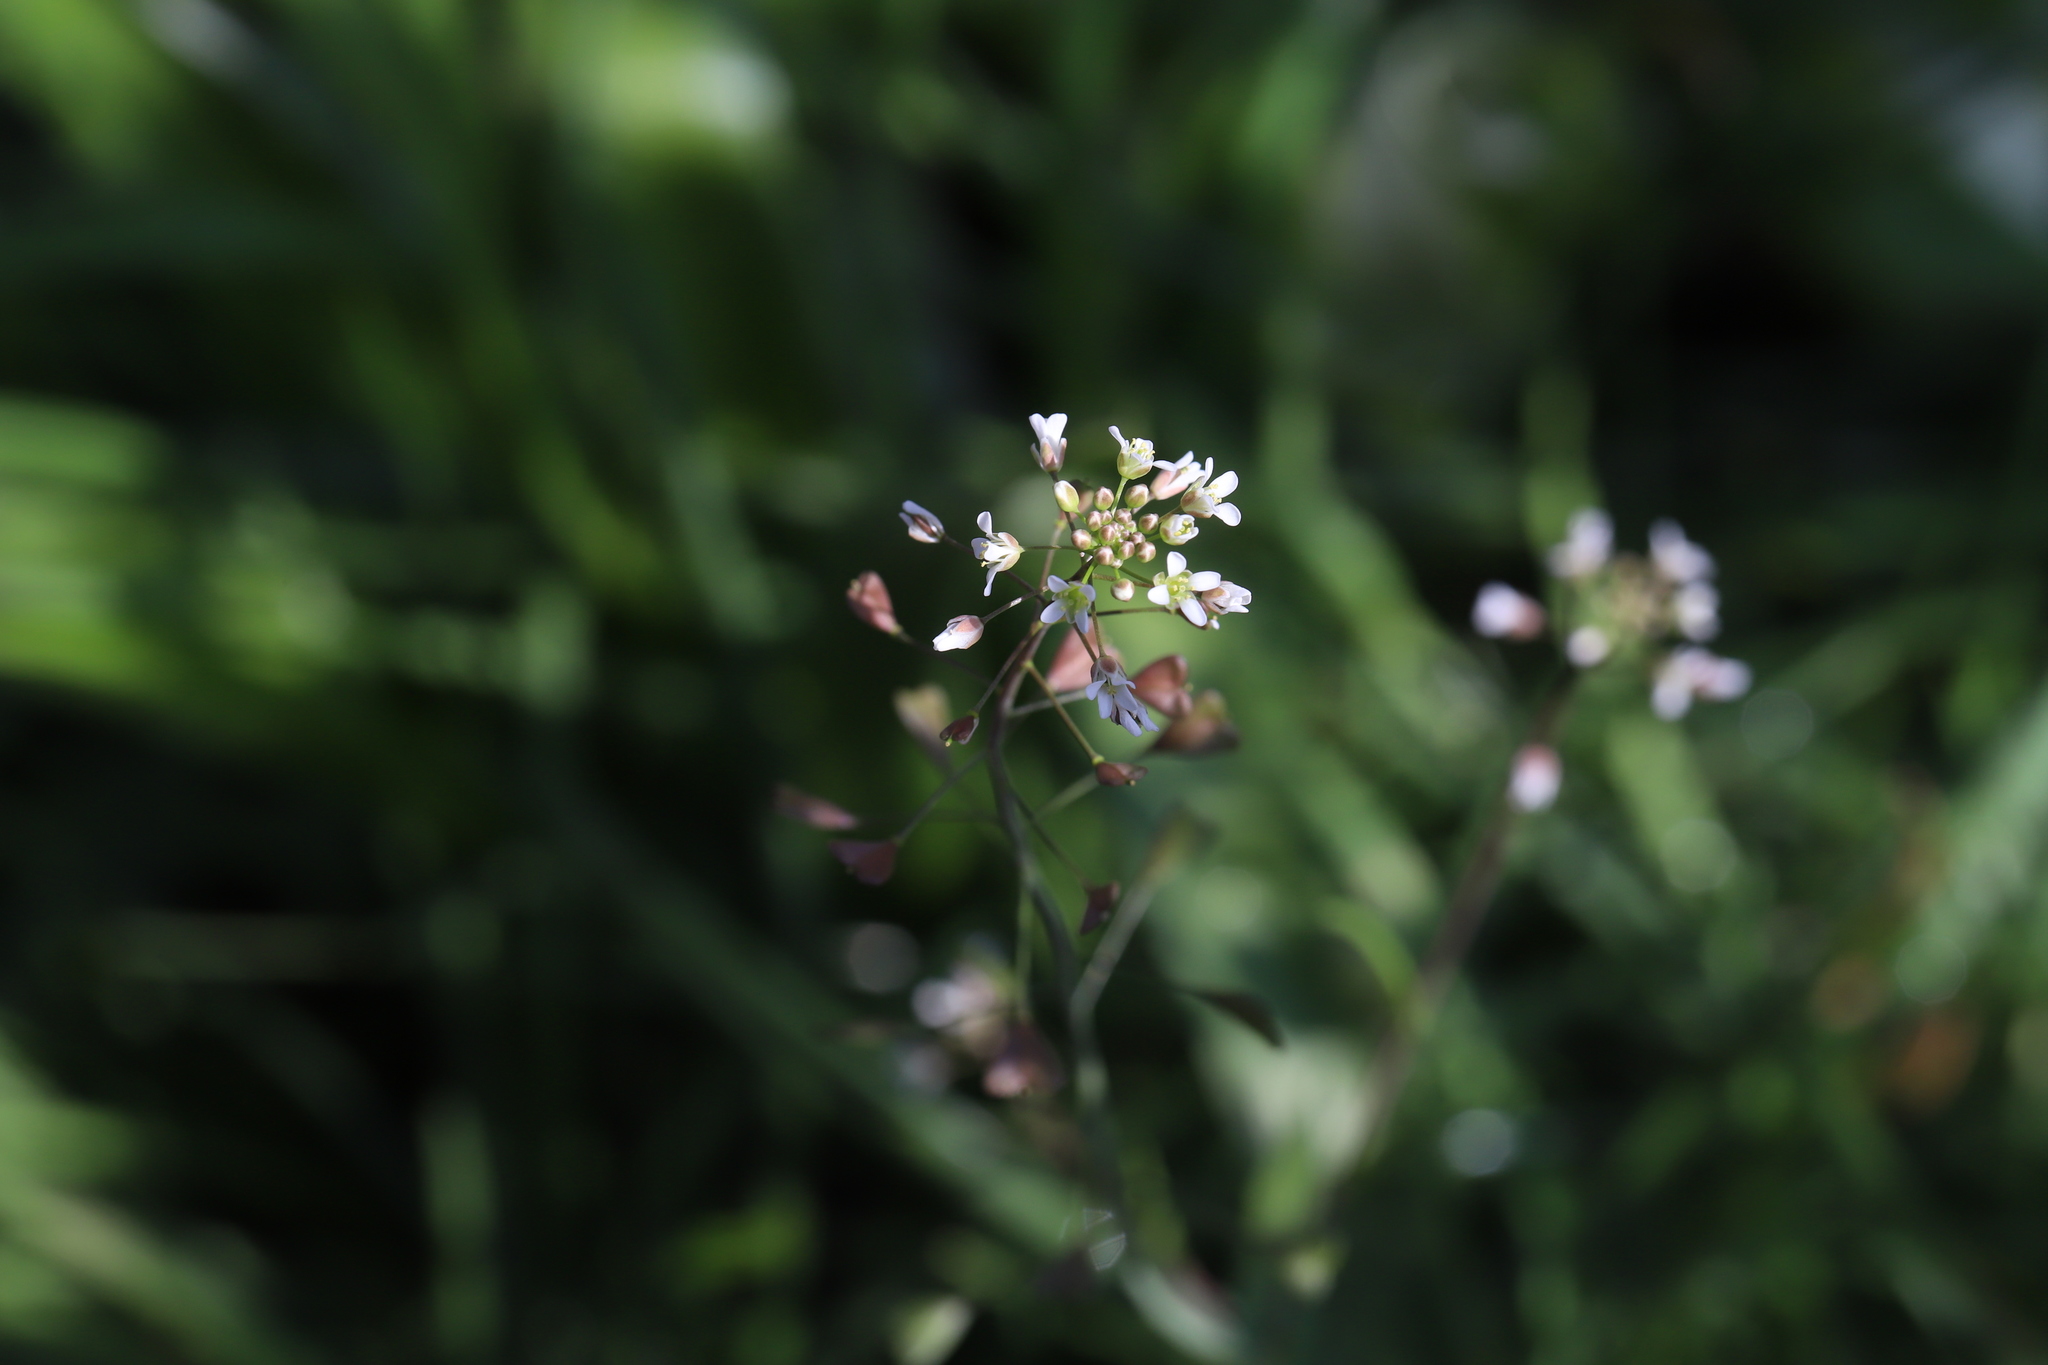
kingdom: Plantae
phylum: Tracheophyta
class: Magnoliopsida
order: Brassicales
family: Brassicaceae
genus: Capsella
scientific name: Capsella bursa-pastoris
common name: Shepherd's purse
